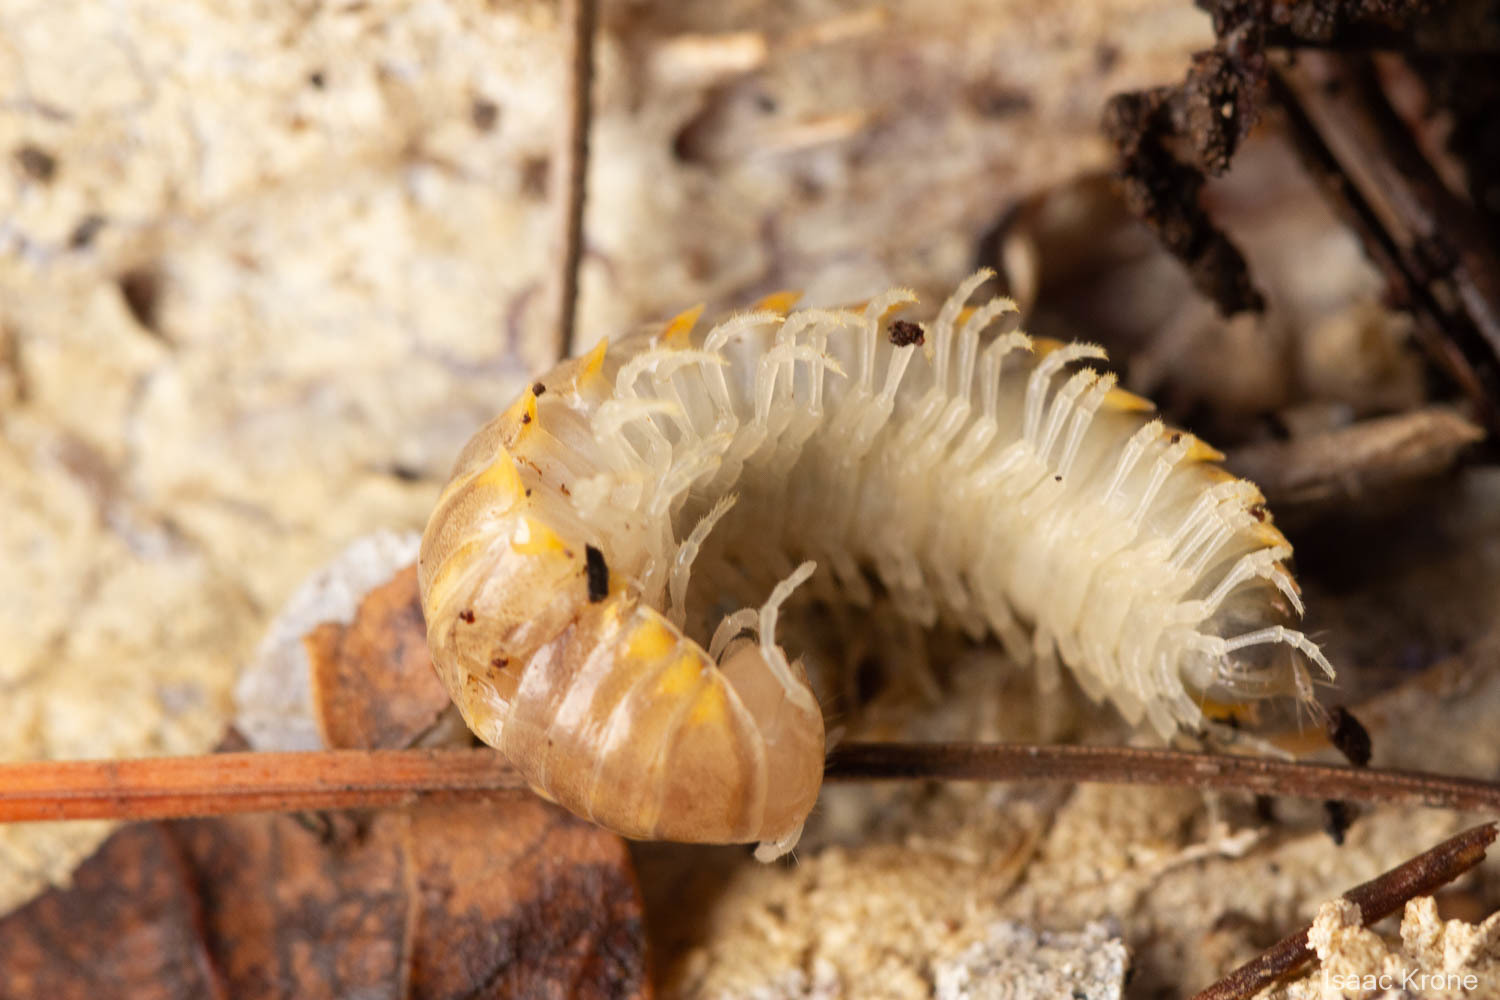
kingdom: Animalia
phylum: Arthropoda
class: Diplopoda
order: Polydesmida
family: Xystodesmidae
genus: Xystocheir
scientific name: Xystocheir dissecta
